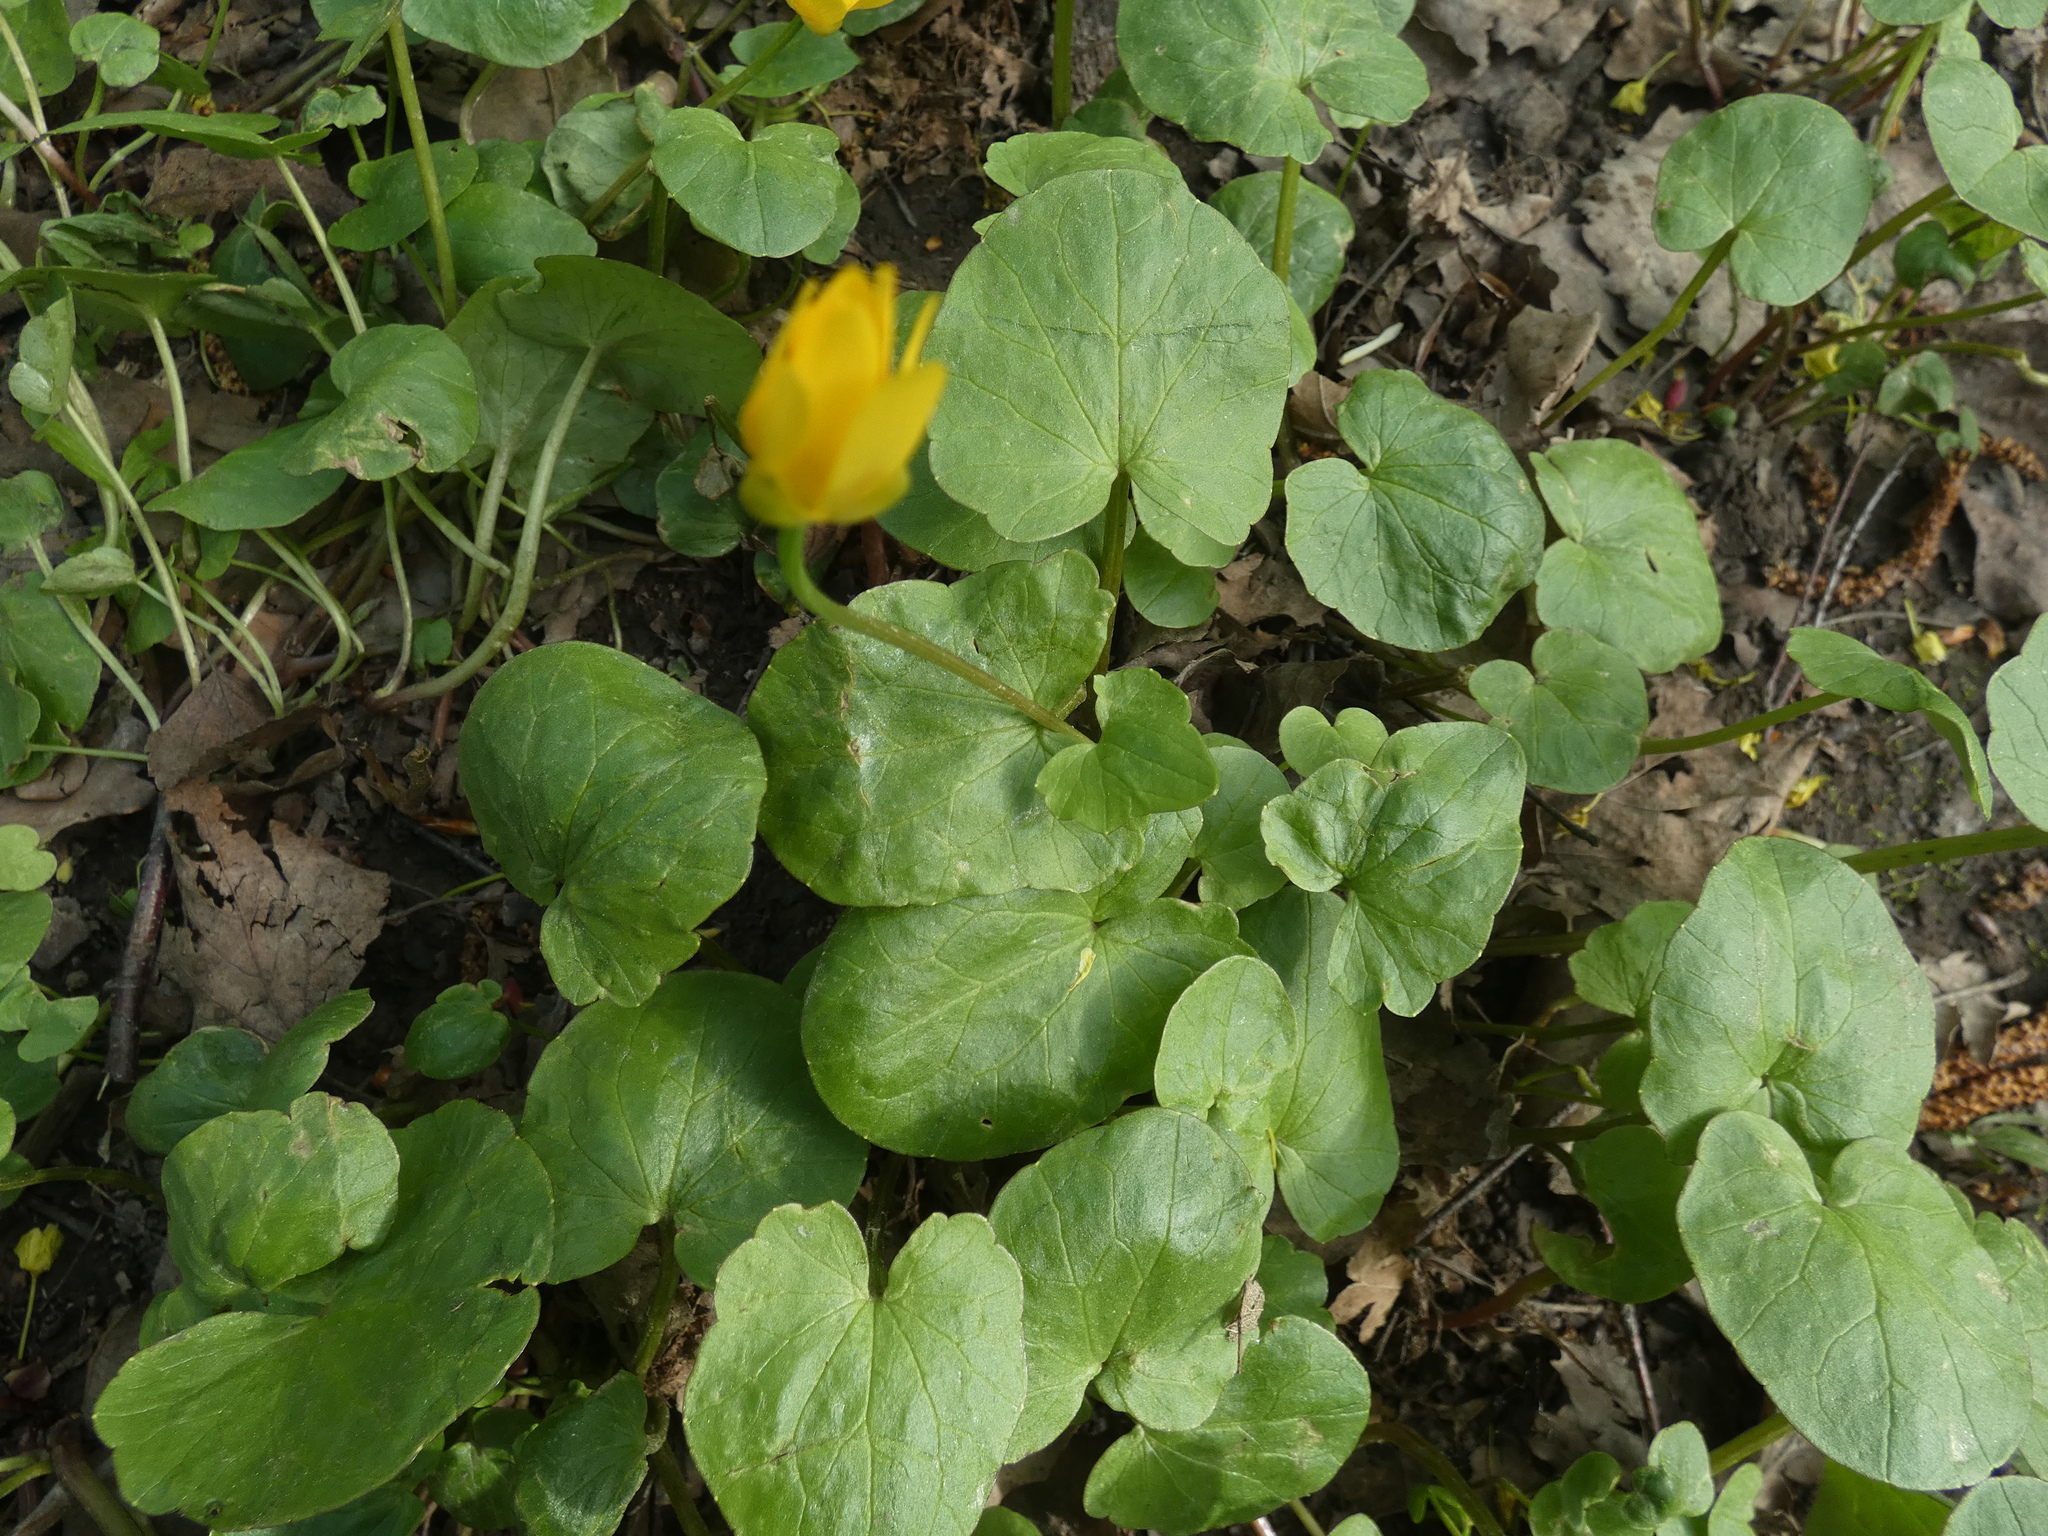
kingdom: Plantae
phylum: Tracheophyta
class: Magnoliopsida
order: Ranunculales
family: Ranunculaceae
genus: Ficaria
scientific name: Ficaria verna
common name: Lesser celandine
